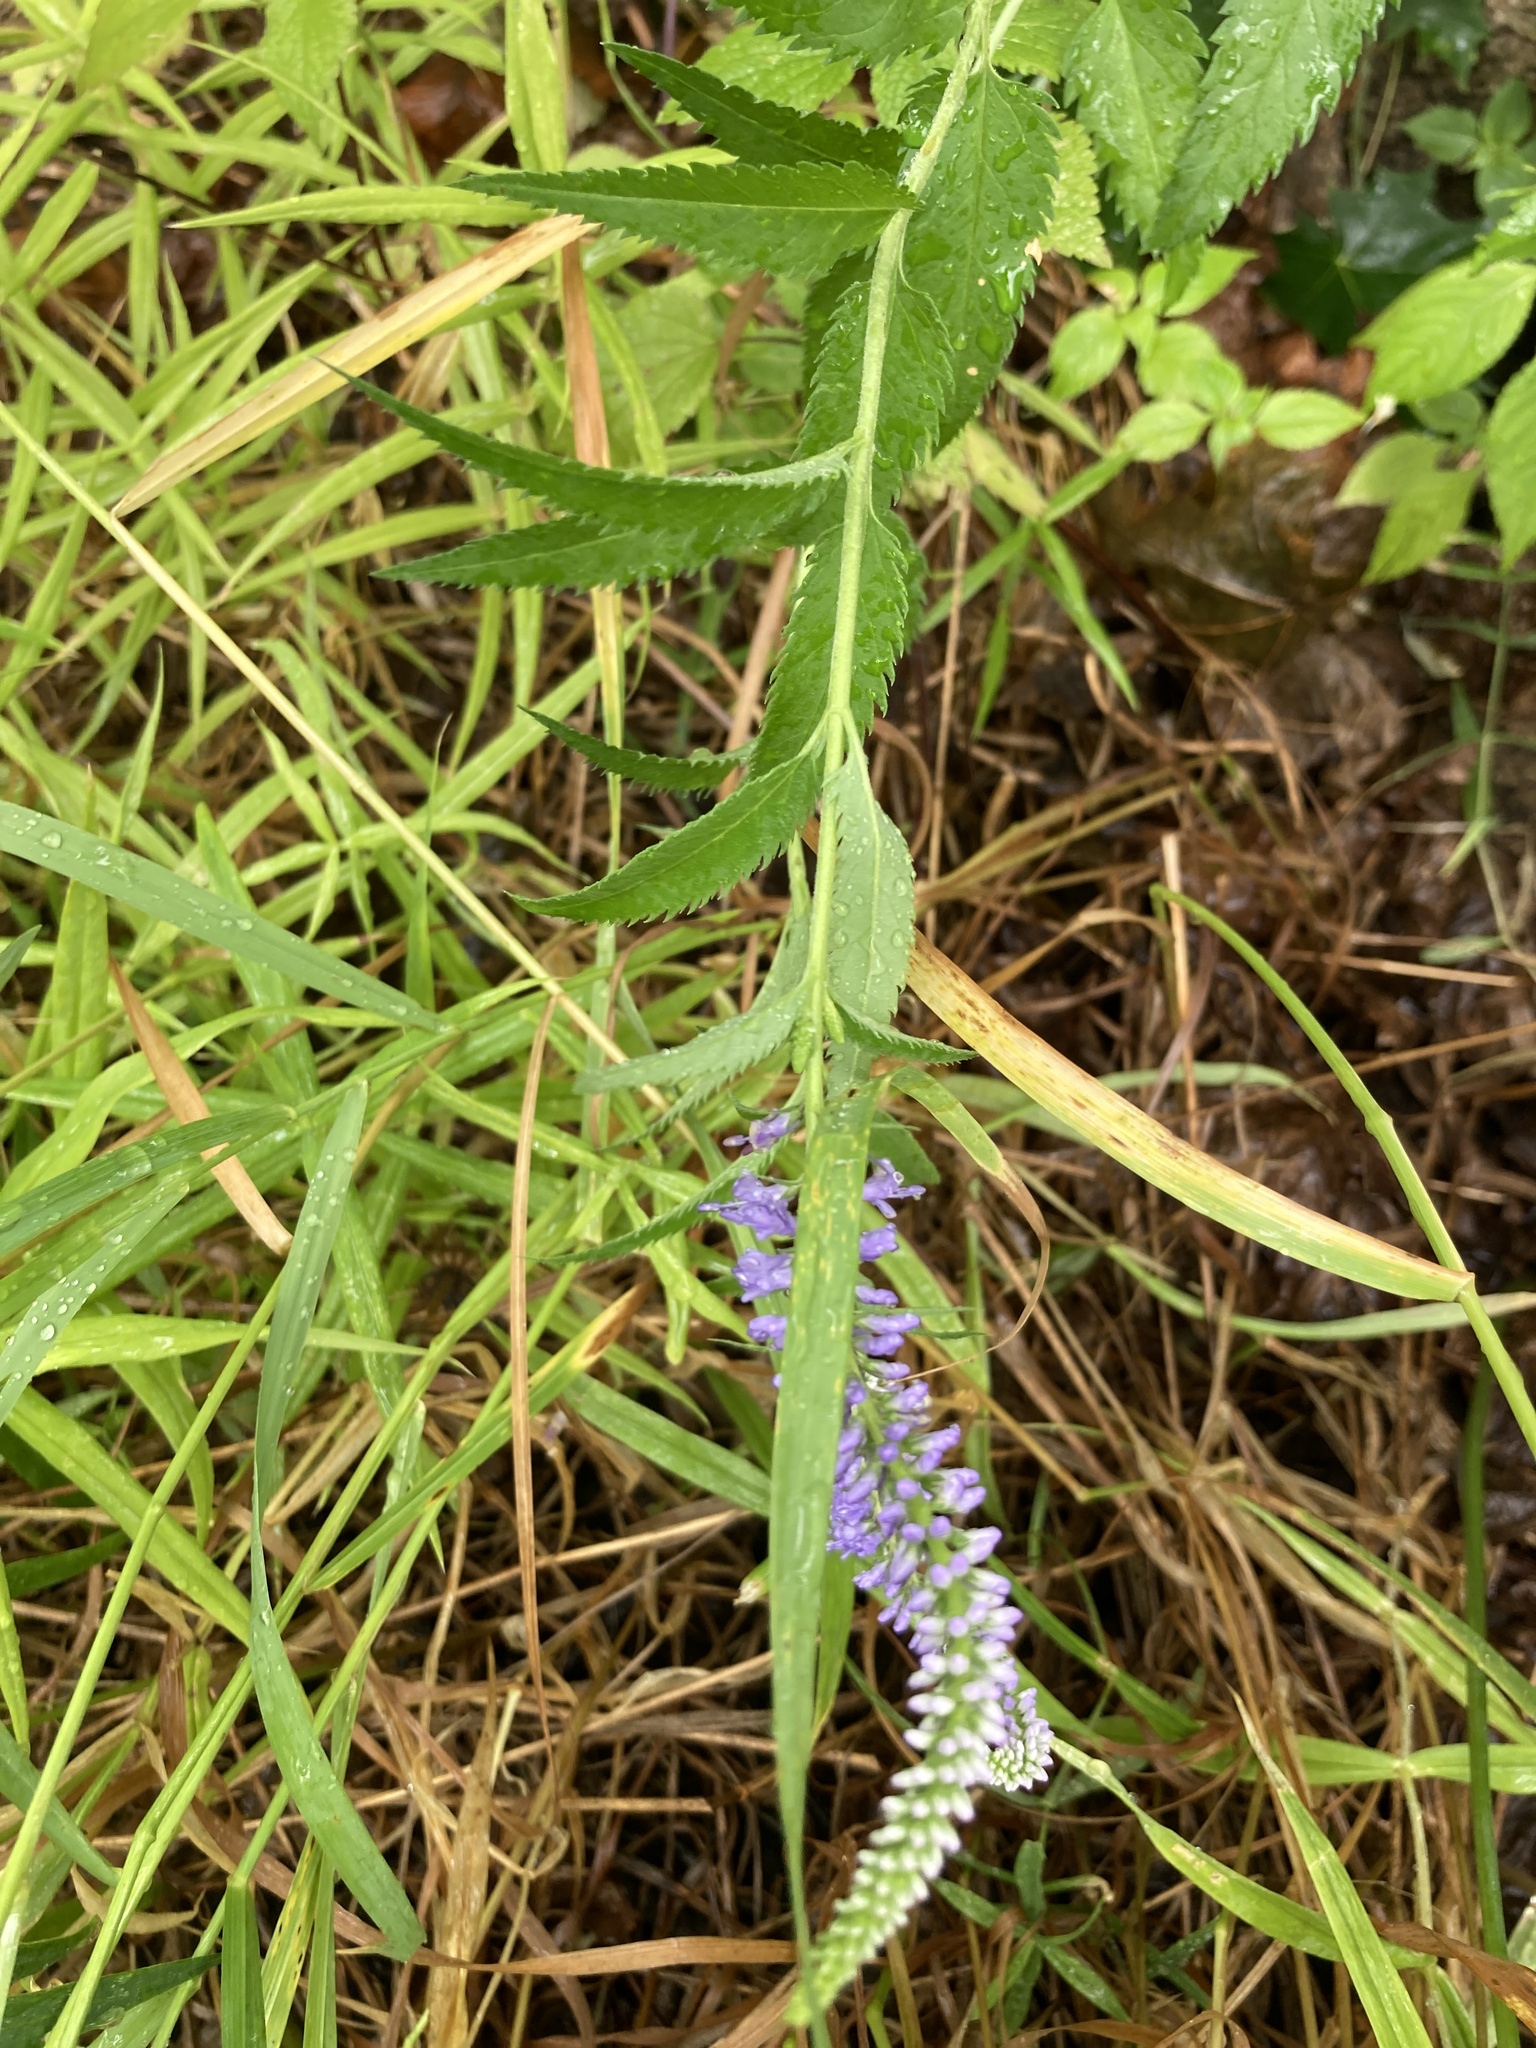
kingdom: Plantae
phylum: Tracheophyta
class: Magnoliopsida
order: Lamiales
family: Plantaginaceae
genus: Veronica
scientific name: Veronica longifolia
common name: Garden speedwell
